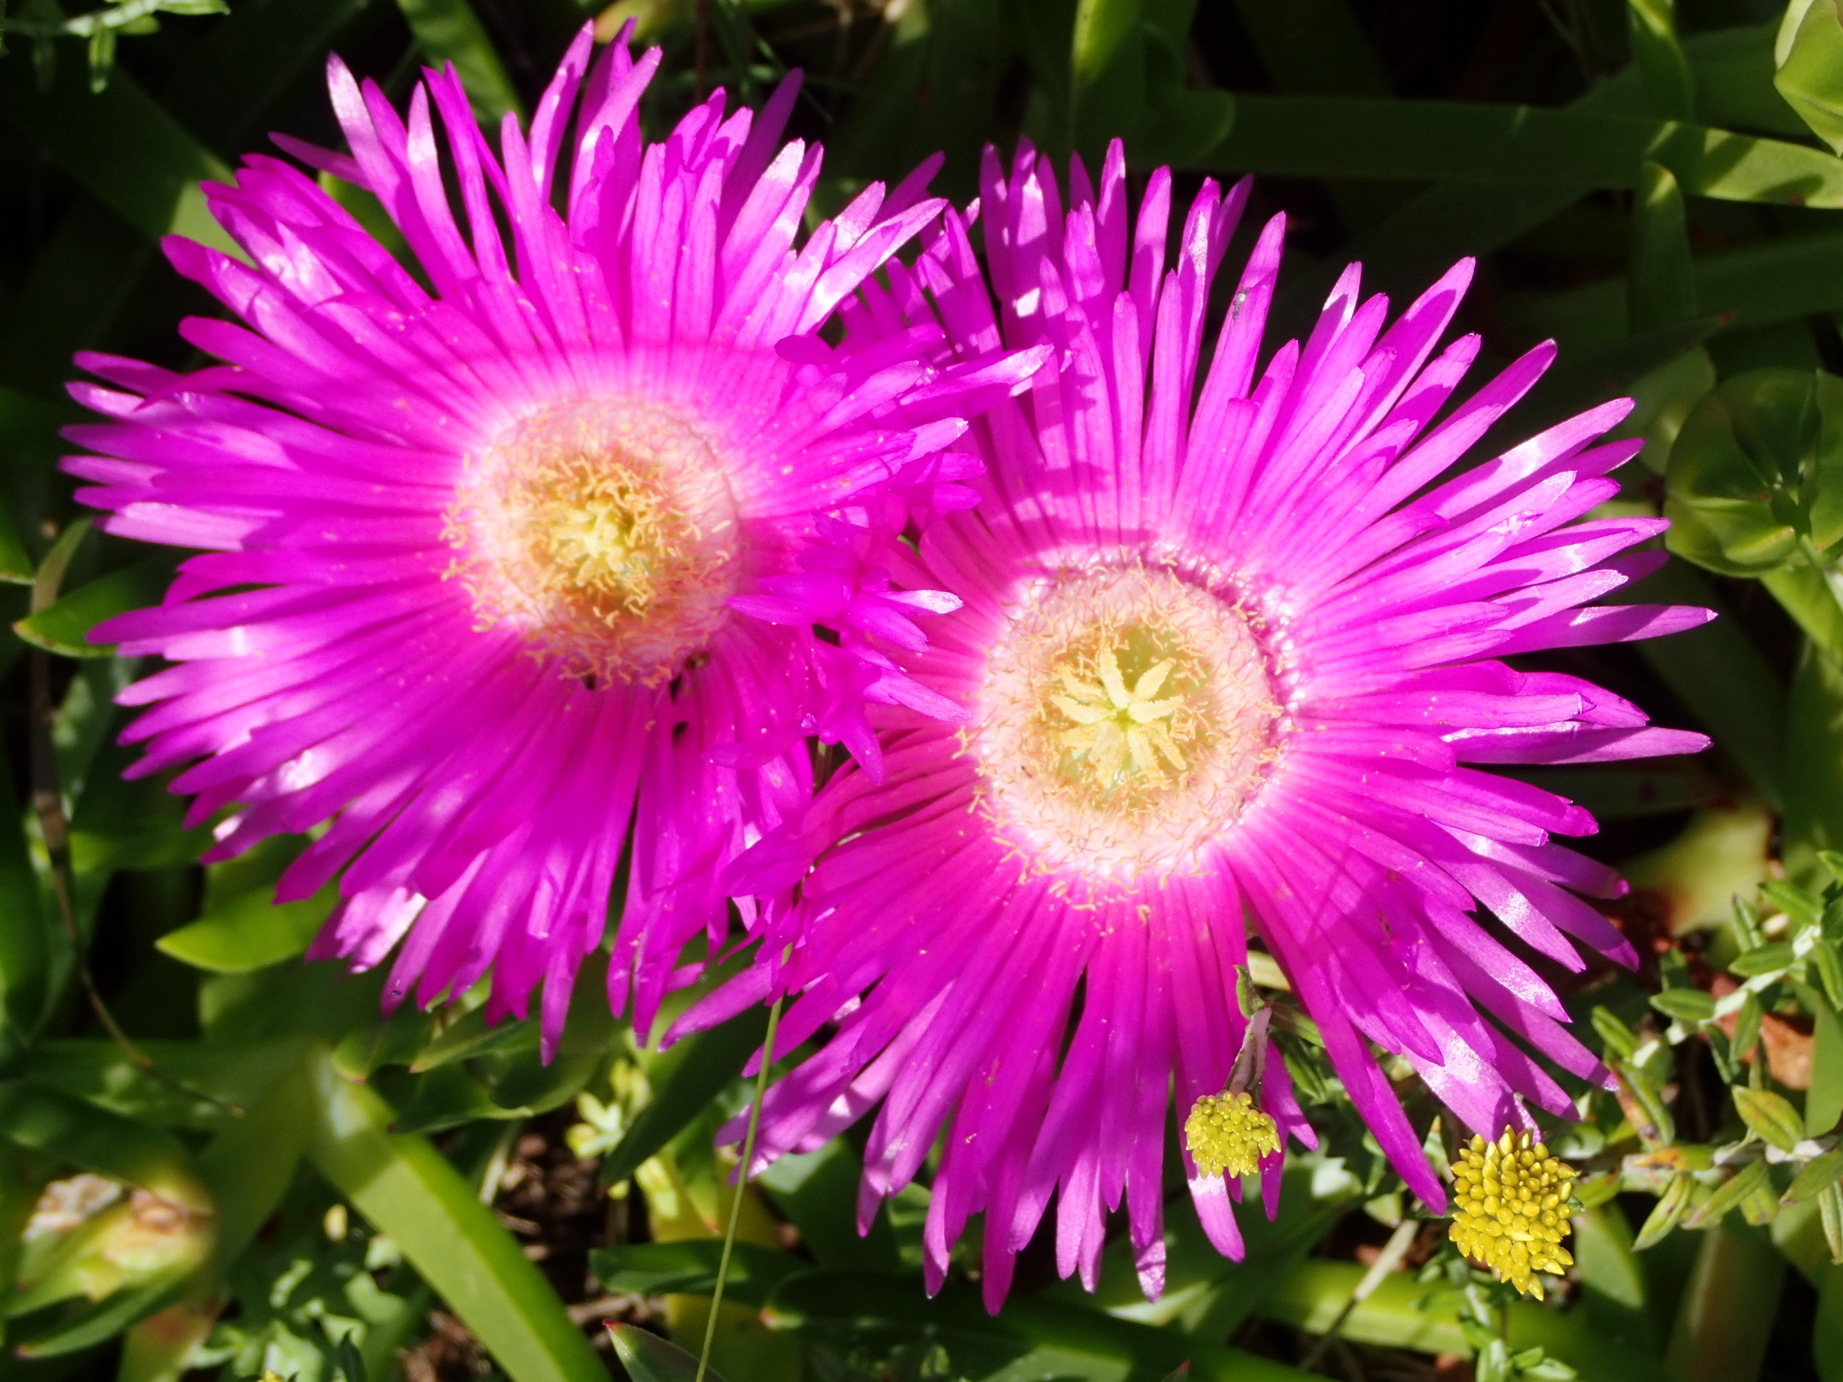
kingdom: Plantae
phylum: Tracheophyta
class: Magnoliopsida
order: Caryophyllales
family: Aizoaceae
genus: Carpobrotus
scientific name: Carpobrotus deliciosus
